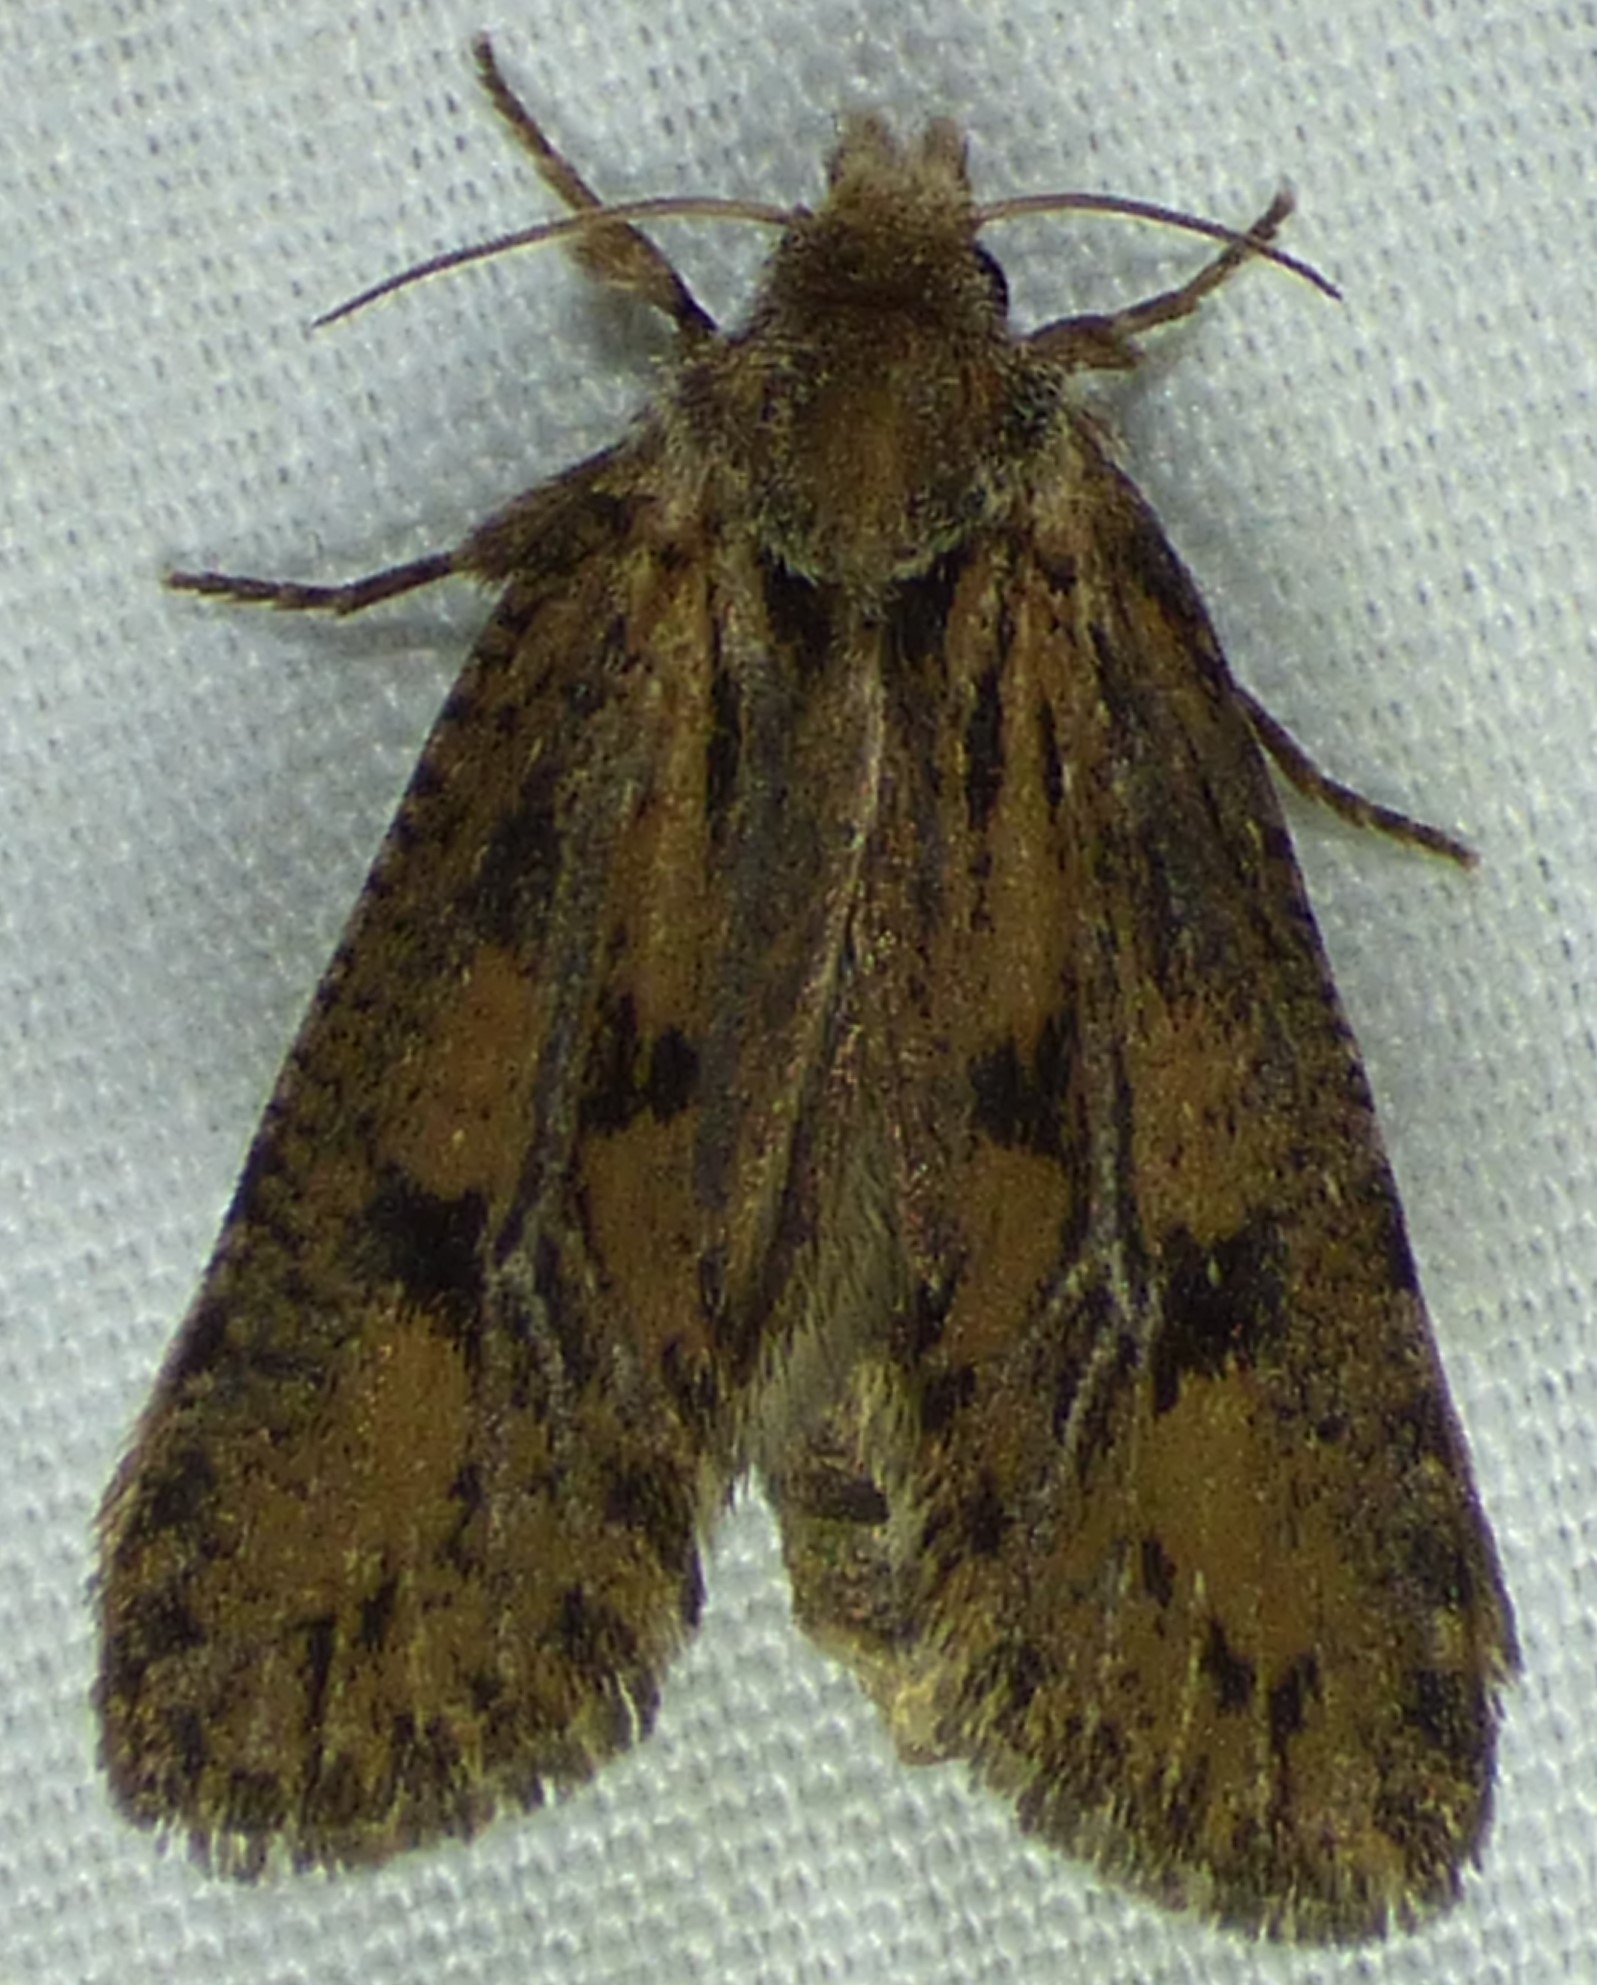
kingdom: Animalia
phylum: Arthropoda
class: Insecta
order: Lepidoptera
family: Tineidae
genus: Acrolophus
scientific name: Acrolophus popeanella
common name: Clemens' grass tubeworm moth
